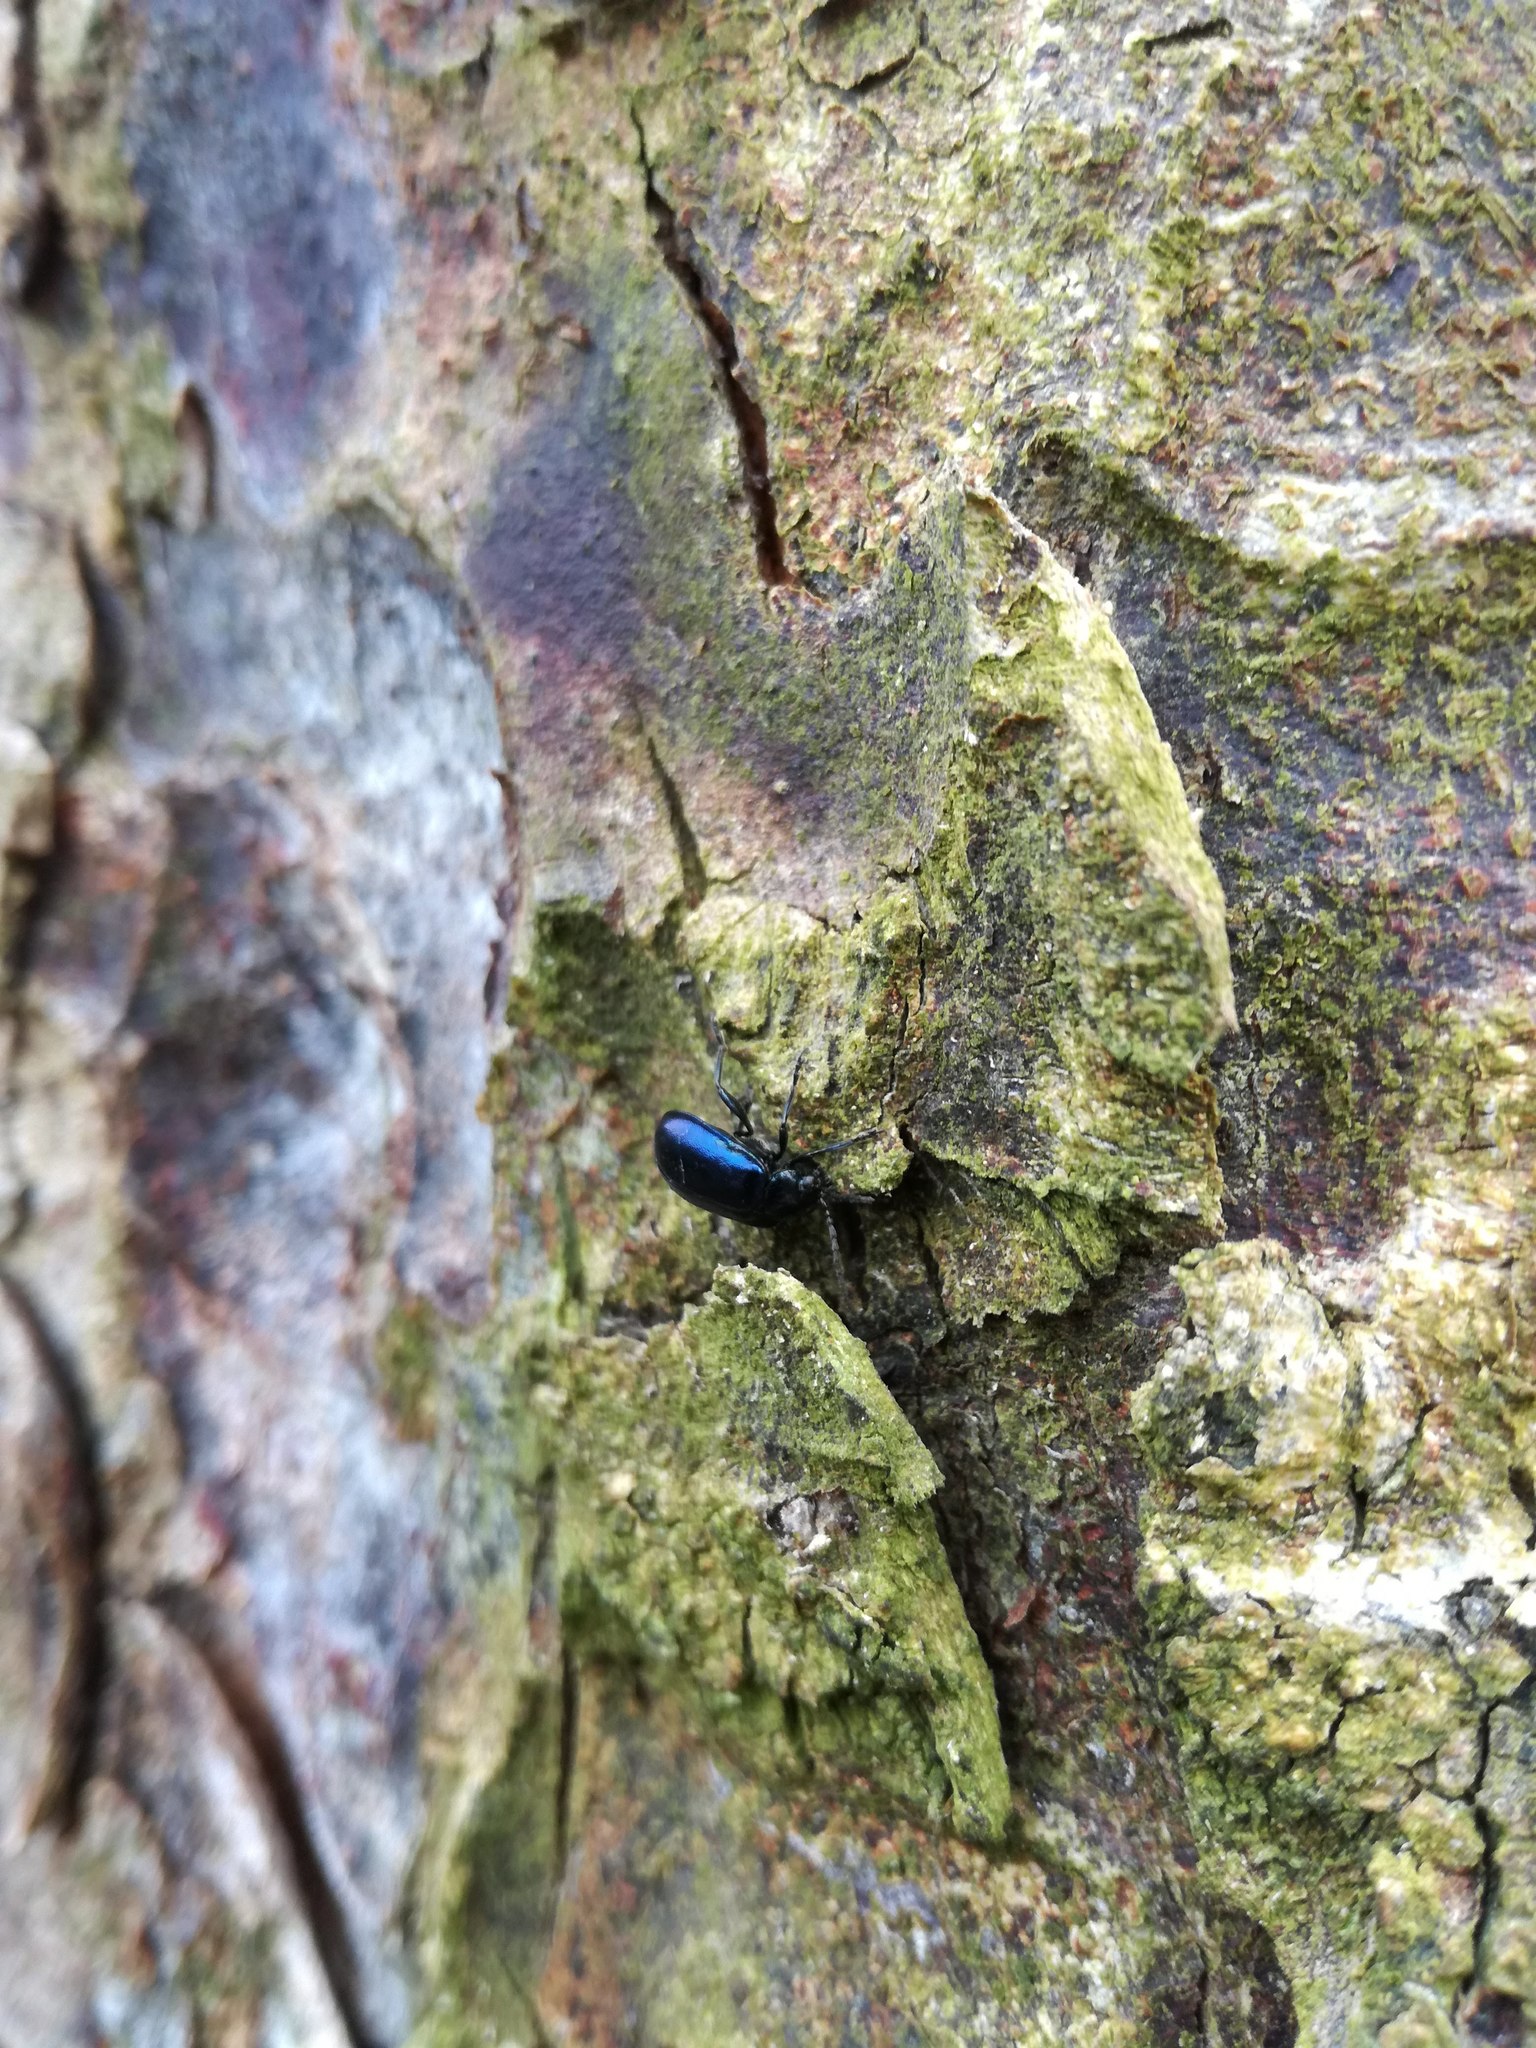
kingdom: Animalia
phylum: Arthropoda
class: Insecta
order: Coleoptera
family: Chrysomelidae
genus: Agelastica
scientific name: Agelastica alni
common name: Alder leaf beetle
